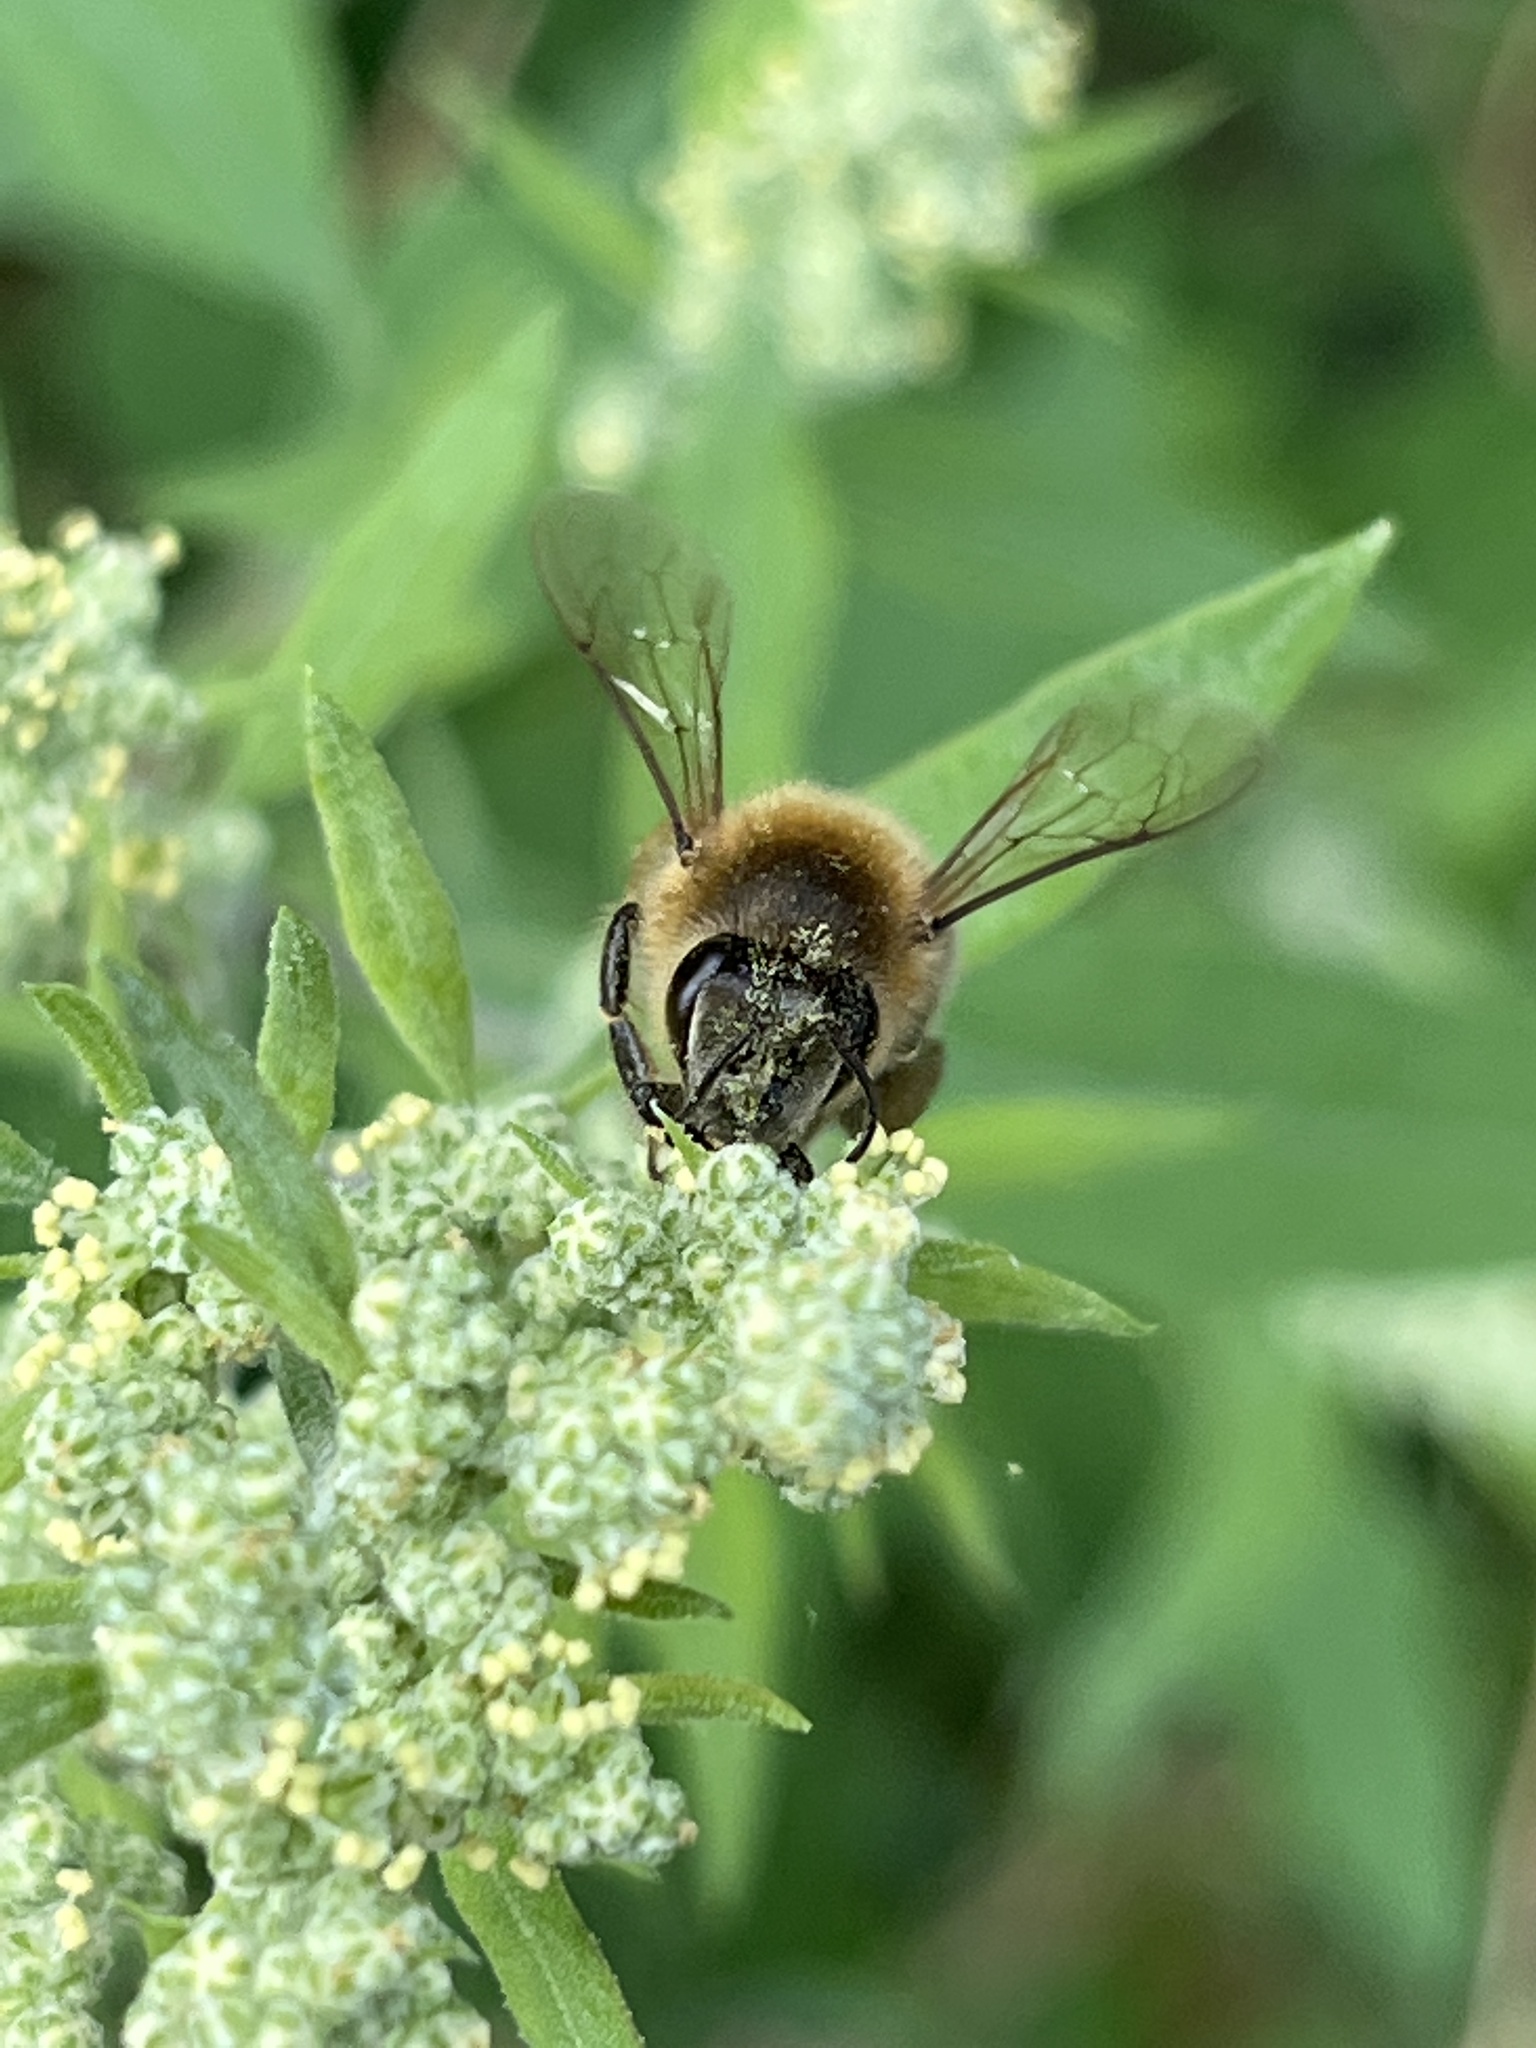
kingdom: Animalia
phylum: Arthropoda
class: Insecta
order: Hymenoptera
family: Apidae
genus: Apis
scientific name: Apis mellifera
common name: Honey bee
